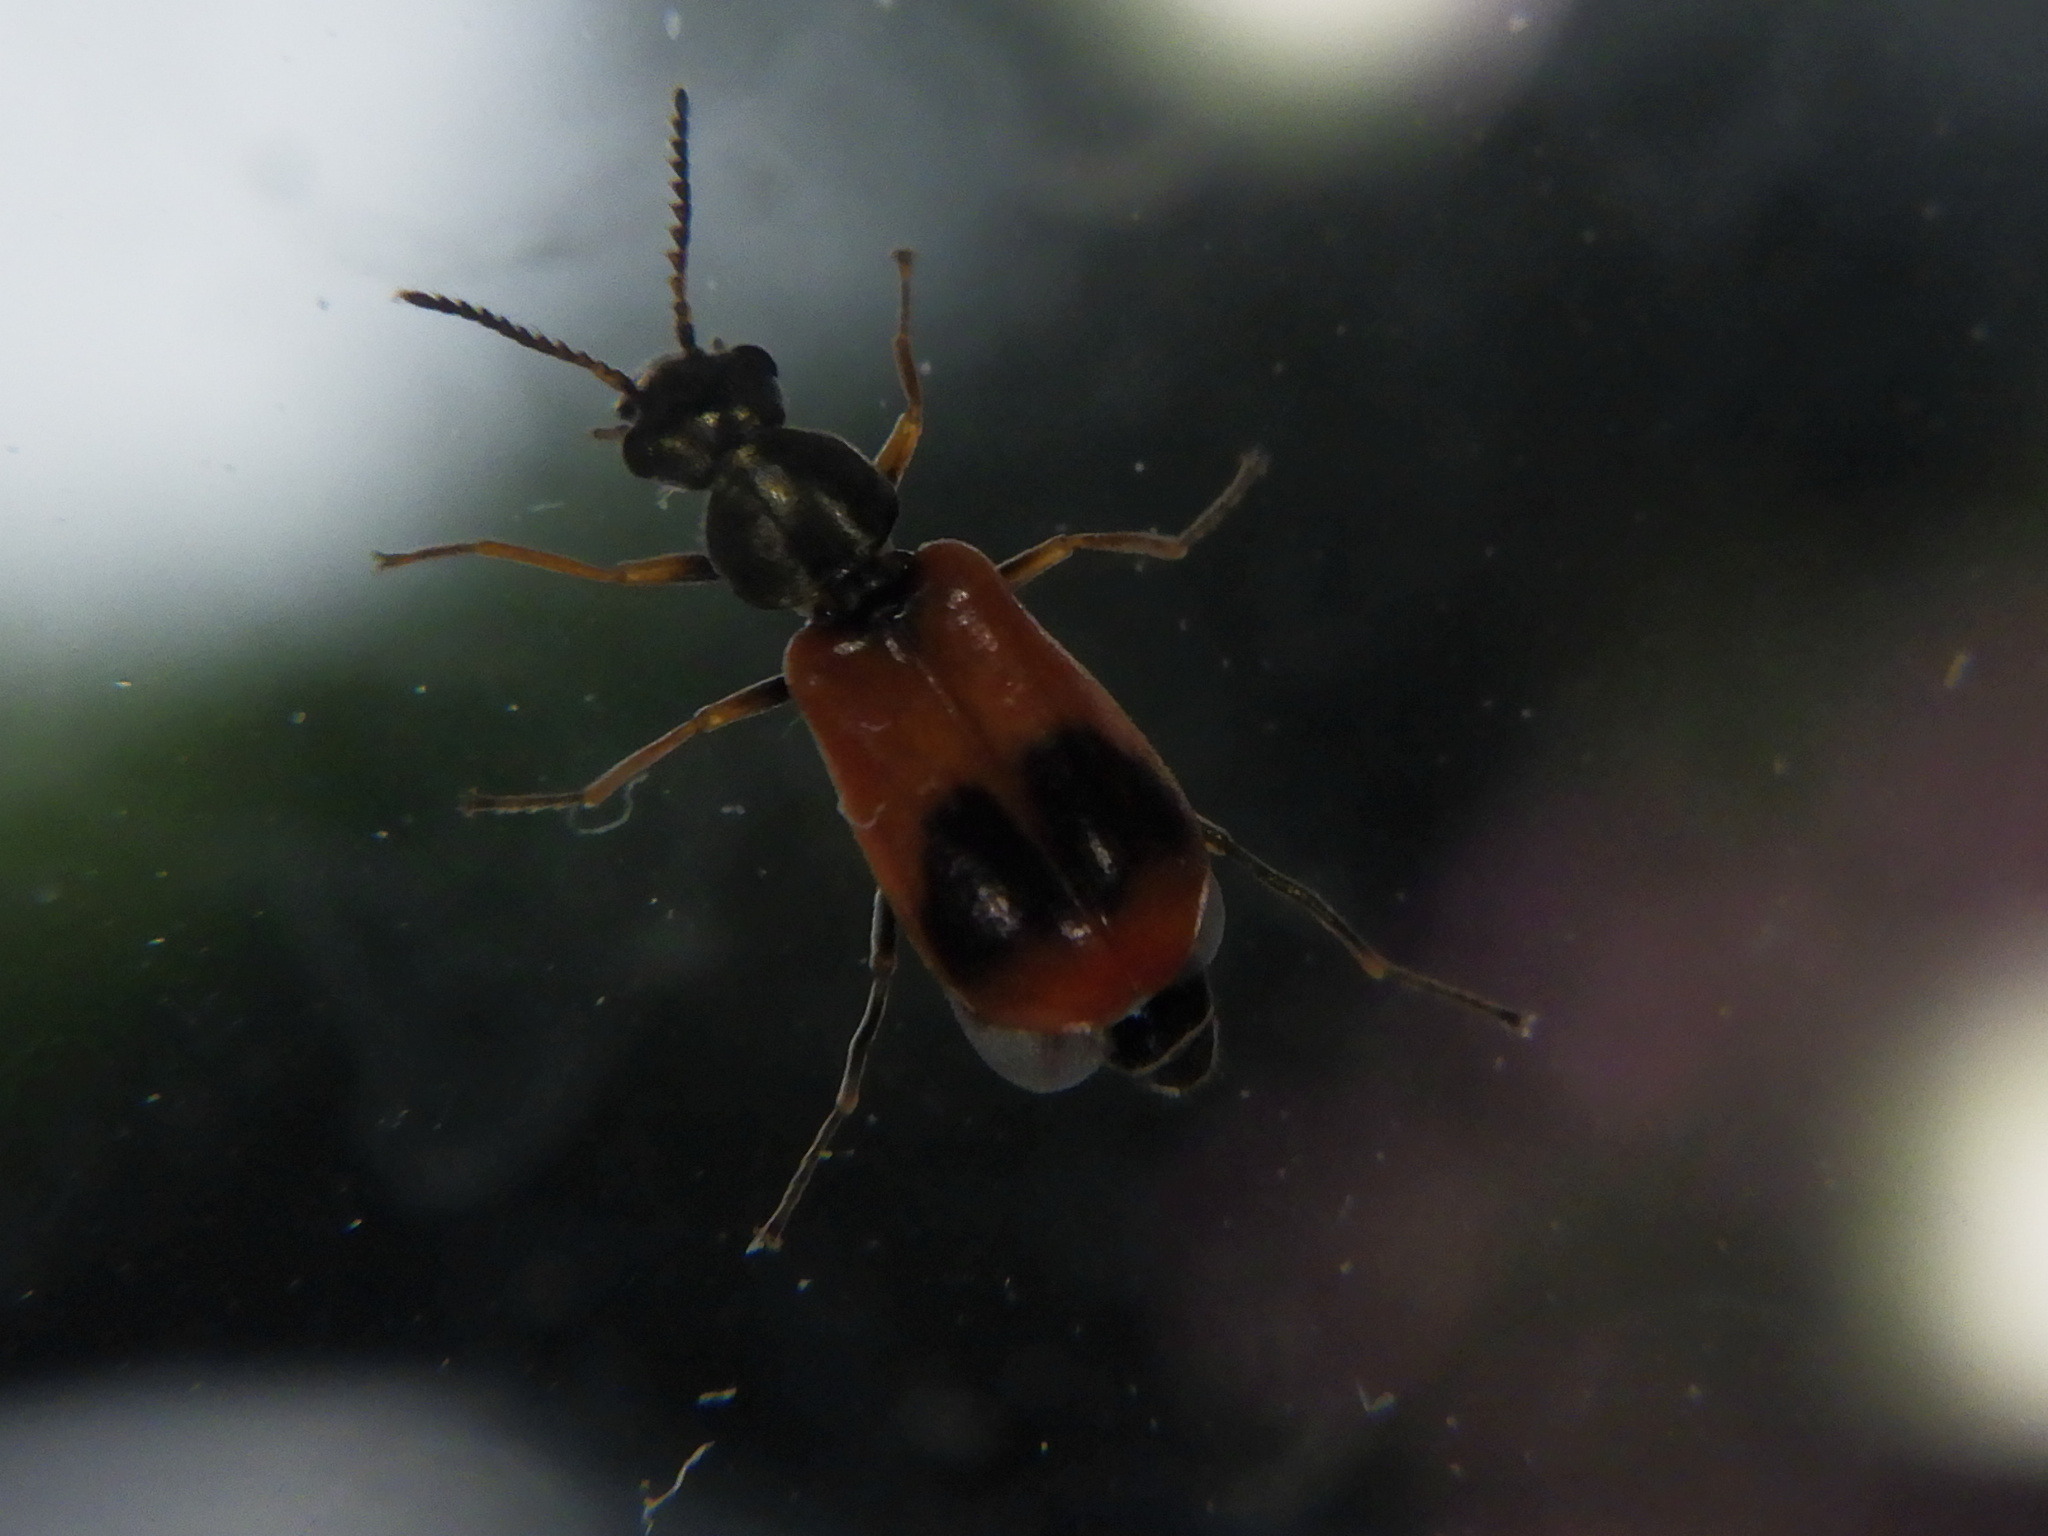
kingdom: Animalia
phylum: Arthropoda
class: Insecta
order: Coleoptera
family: Melyridae
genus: Anthocomus
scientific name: Anthocomus equestris
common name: Black-banded soft-winged flower beetle
